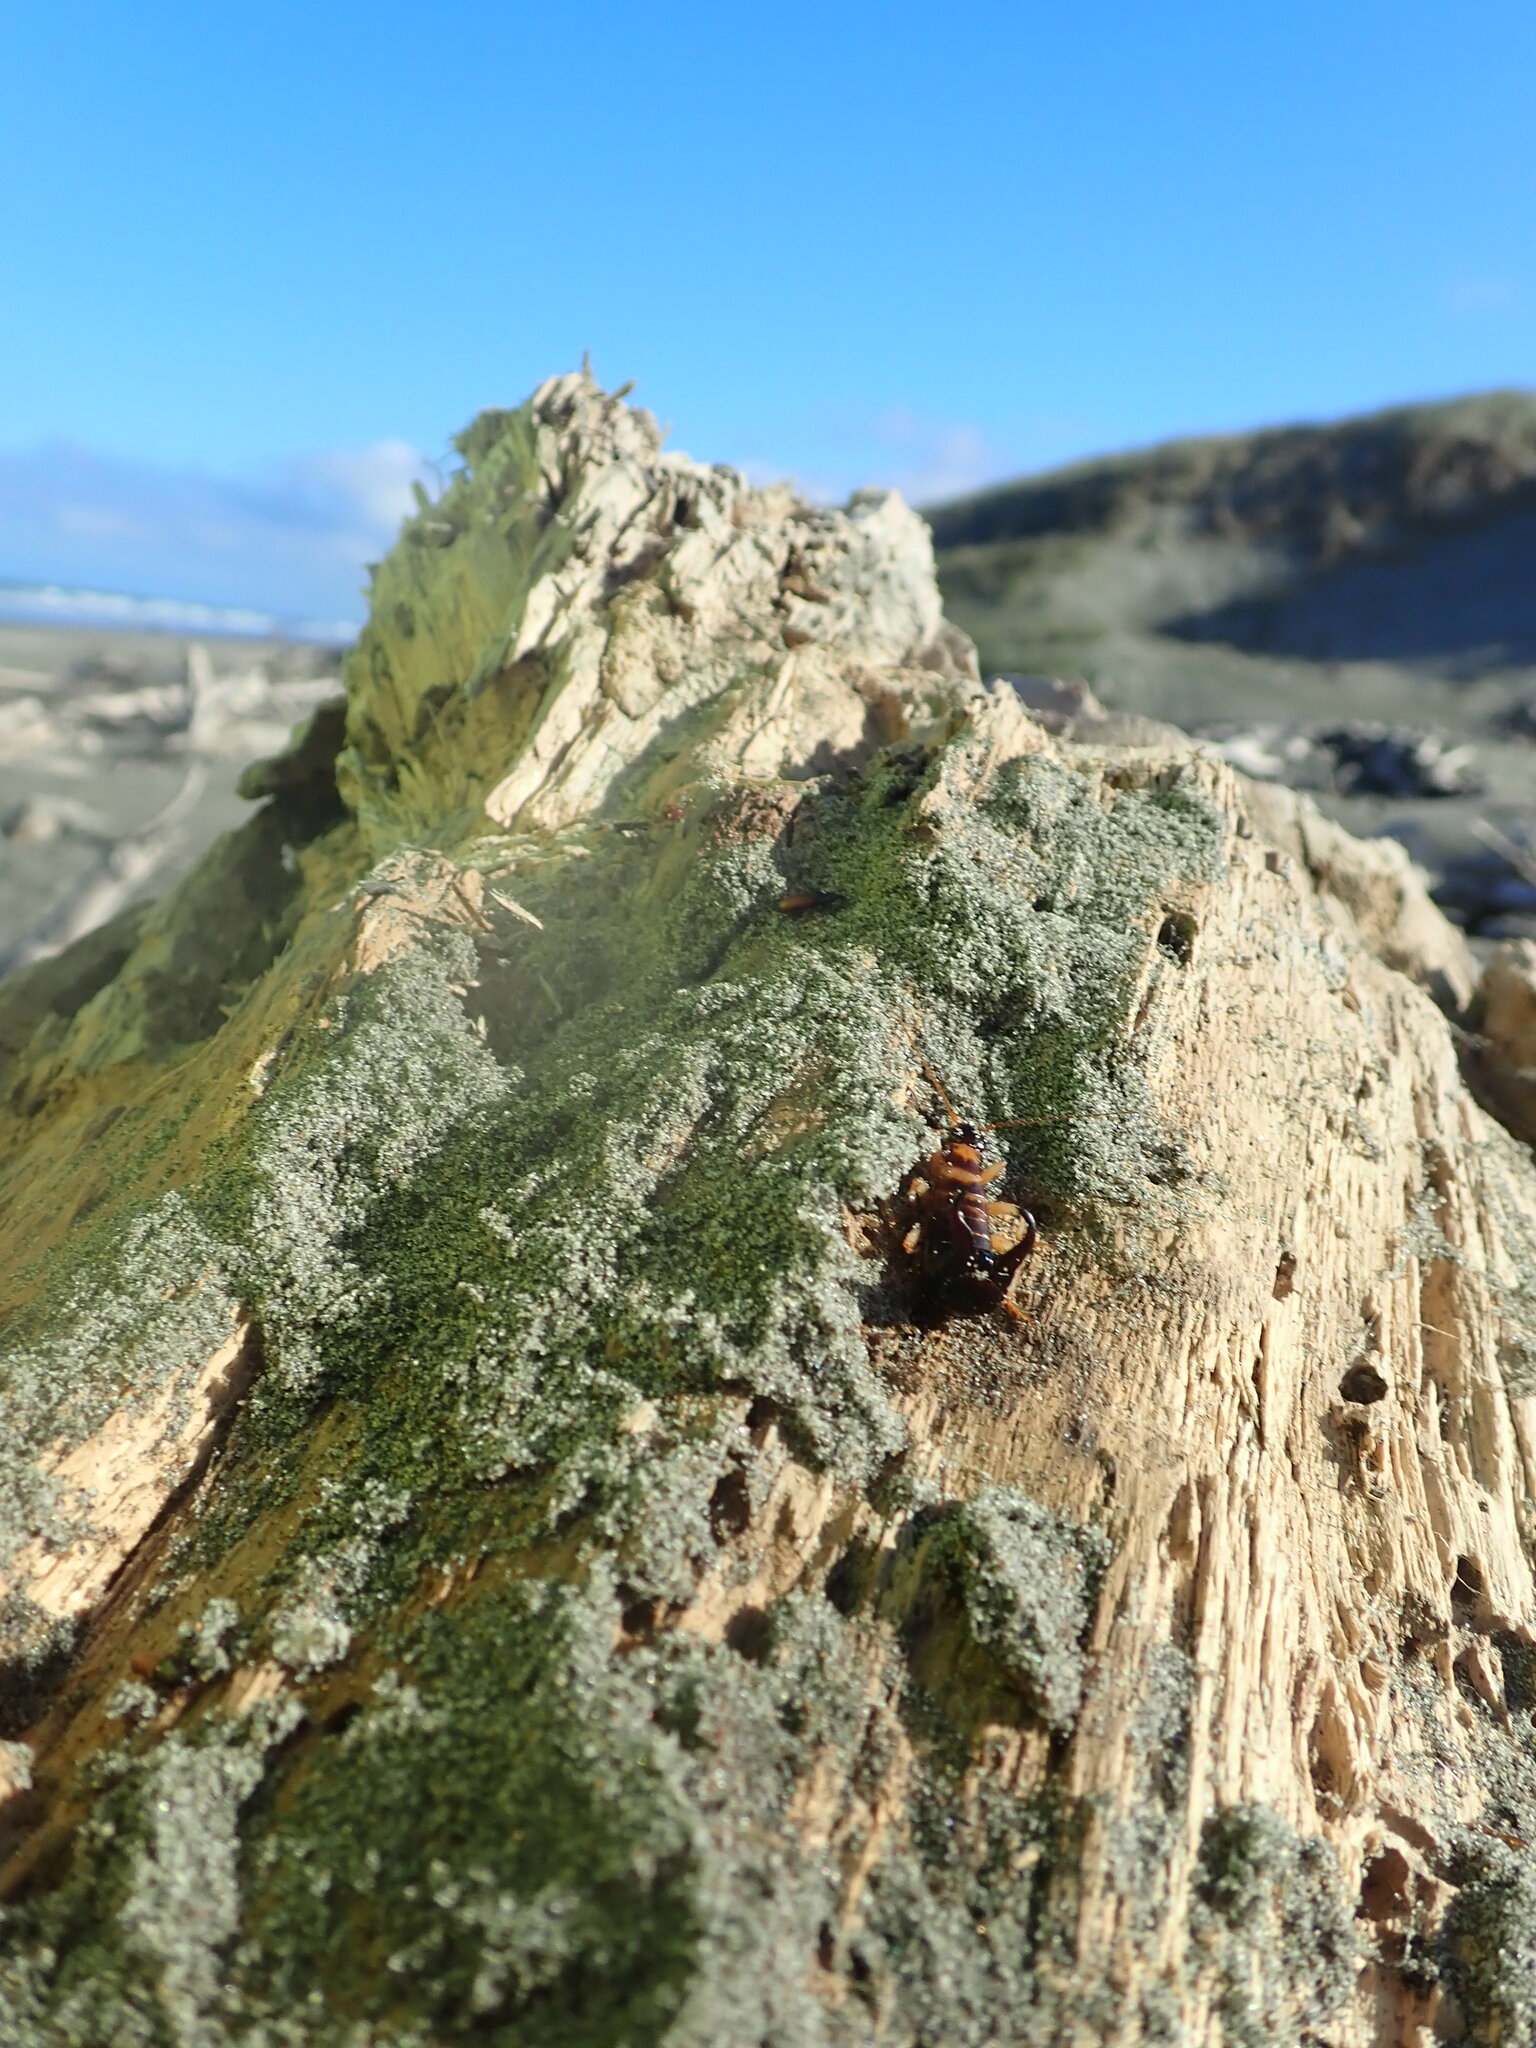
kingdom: Animalia
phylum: Arthropoda
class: Insecta
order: Dermaptera
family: Anisolabididae
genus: Anisolabis
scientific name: Anisolabis littorea
